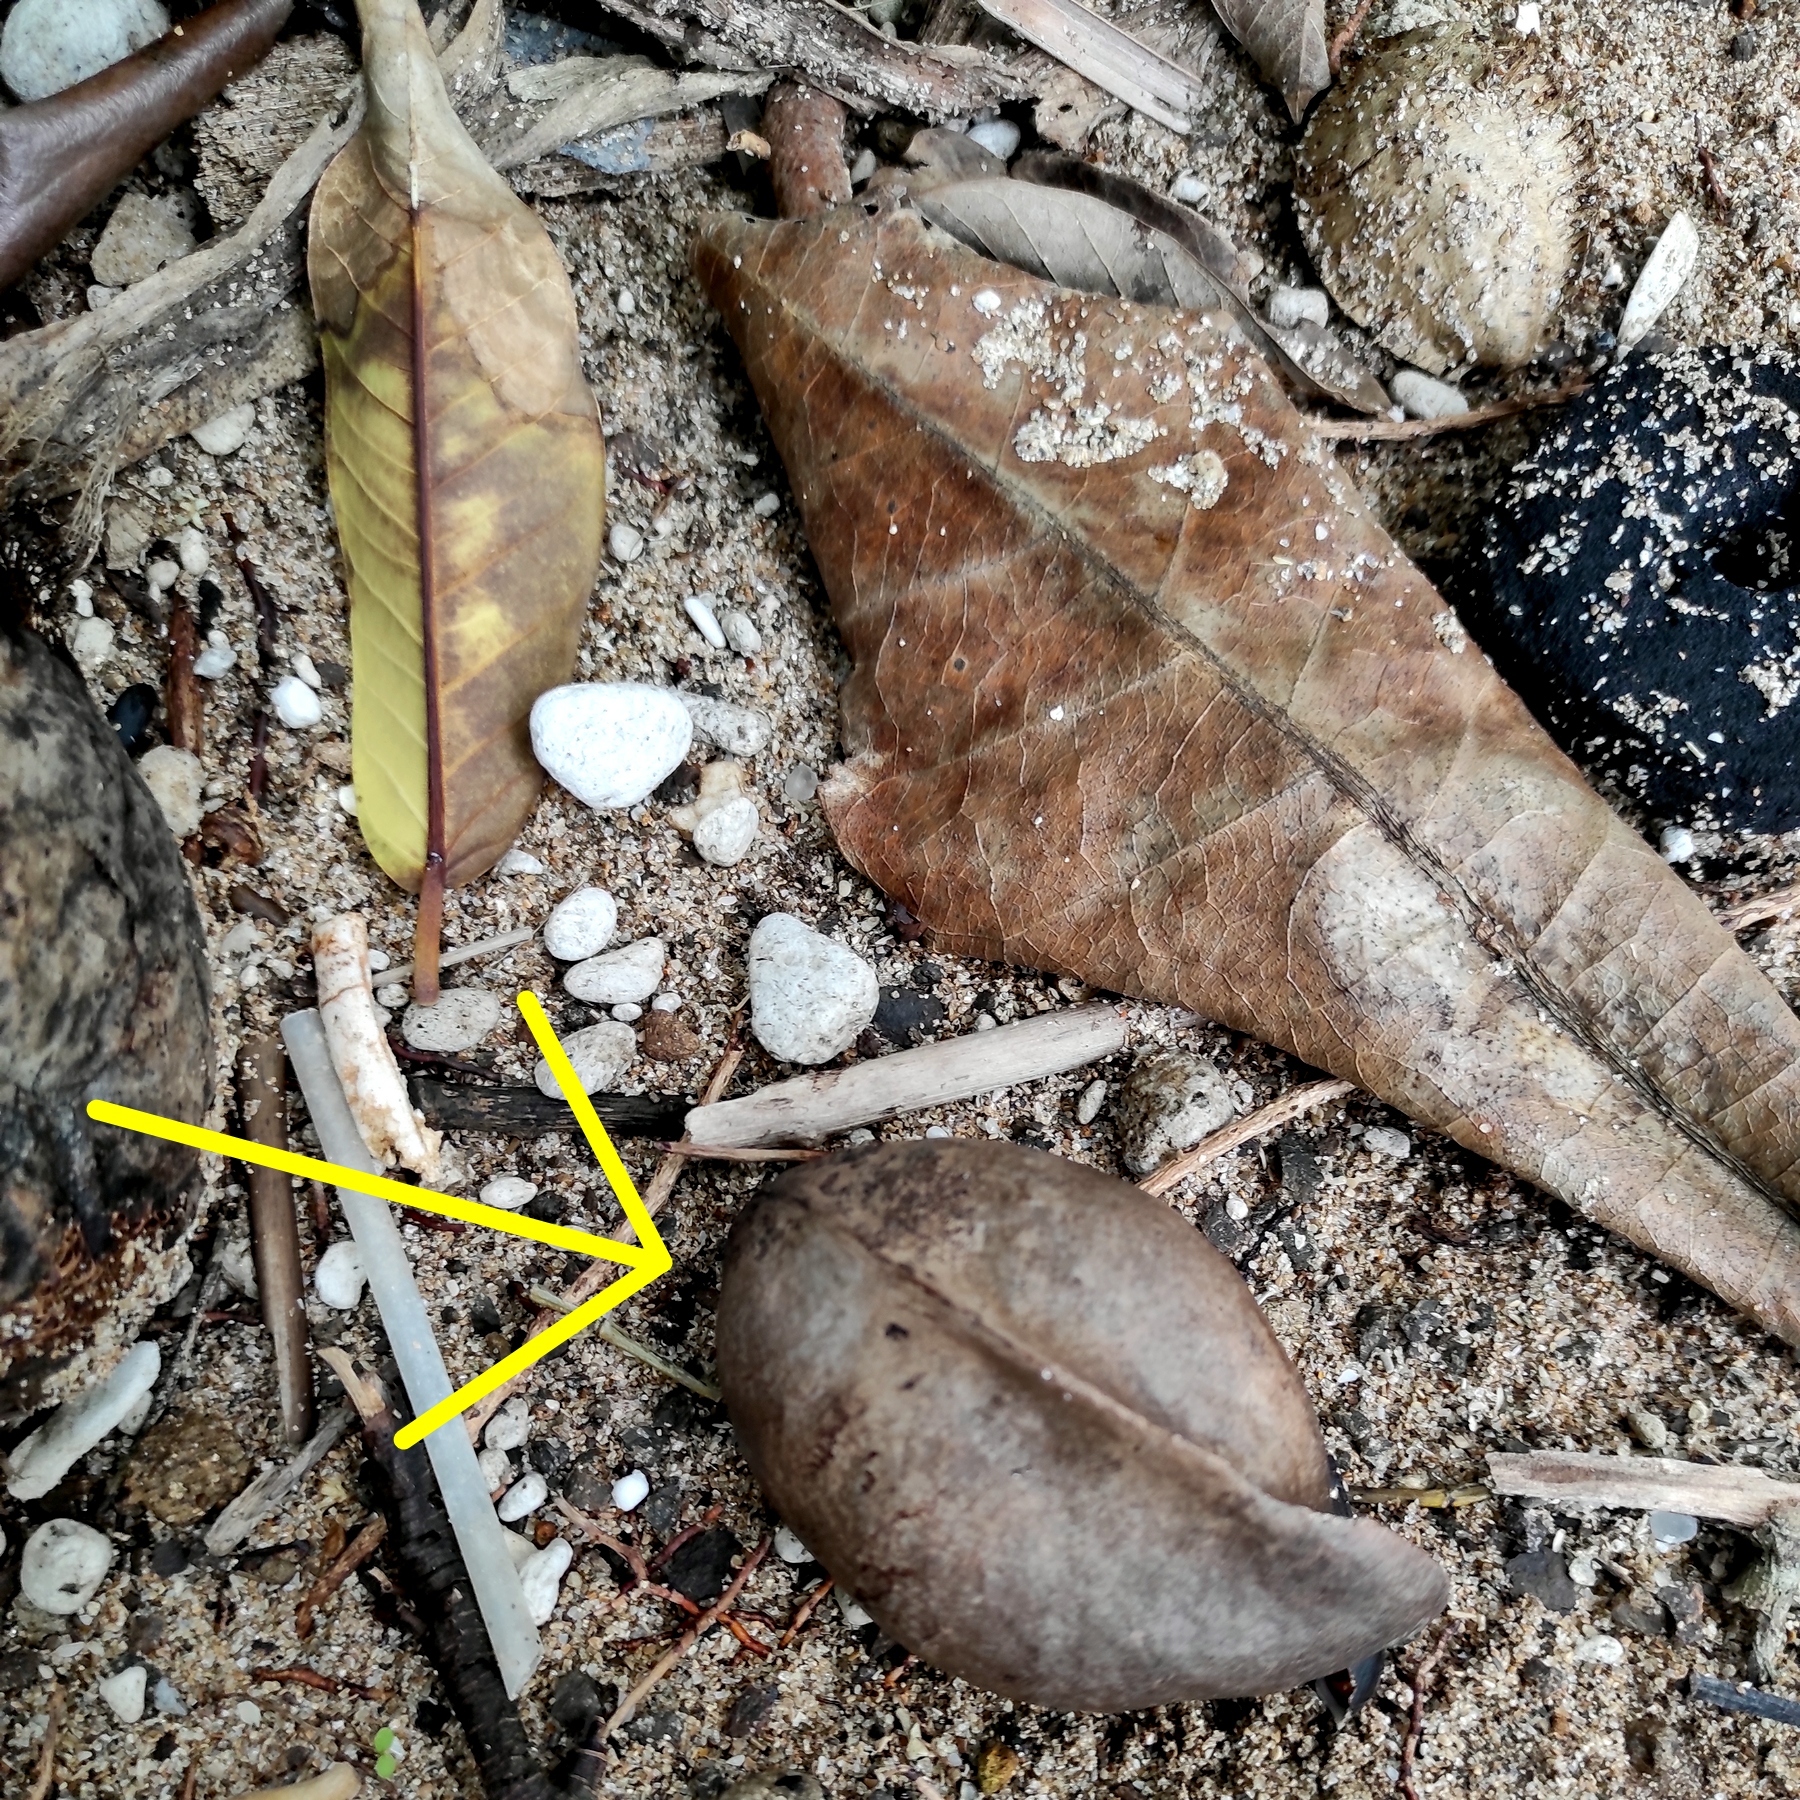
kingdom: Plantae
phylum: Tracheophyta
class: Magnoliopsida
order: Malvales
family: Malvaceae
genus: Heritiera
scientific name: Heritiera littoralis
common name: Looking-glass mangrove
